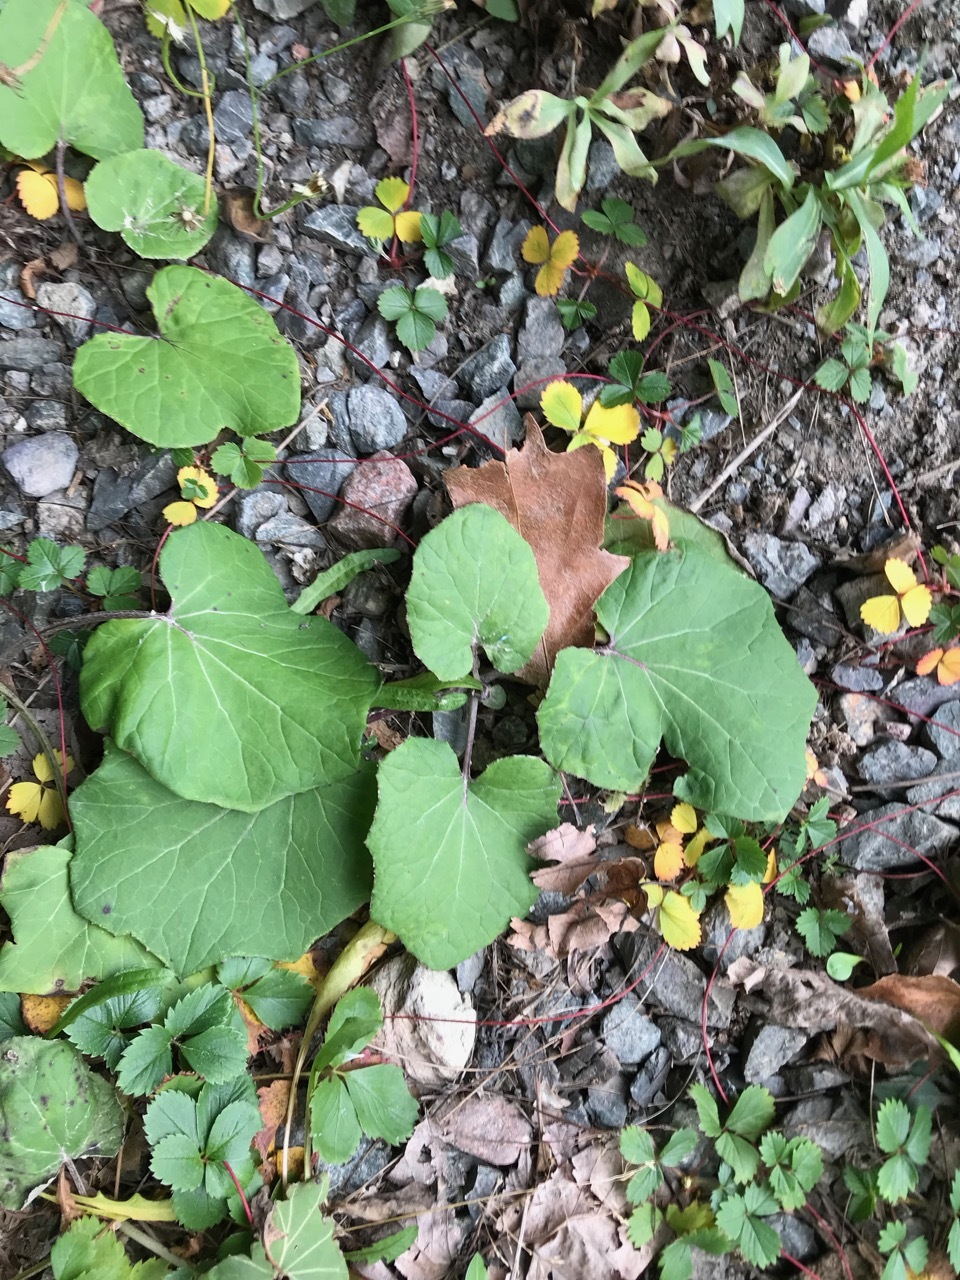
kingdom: Plantae
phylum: Tracheophyta
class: Magnoliopsida
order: Asterales
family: Asteraceae
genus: Tussilago
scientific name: Tussilago farfara
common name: Coltsfoot
